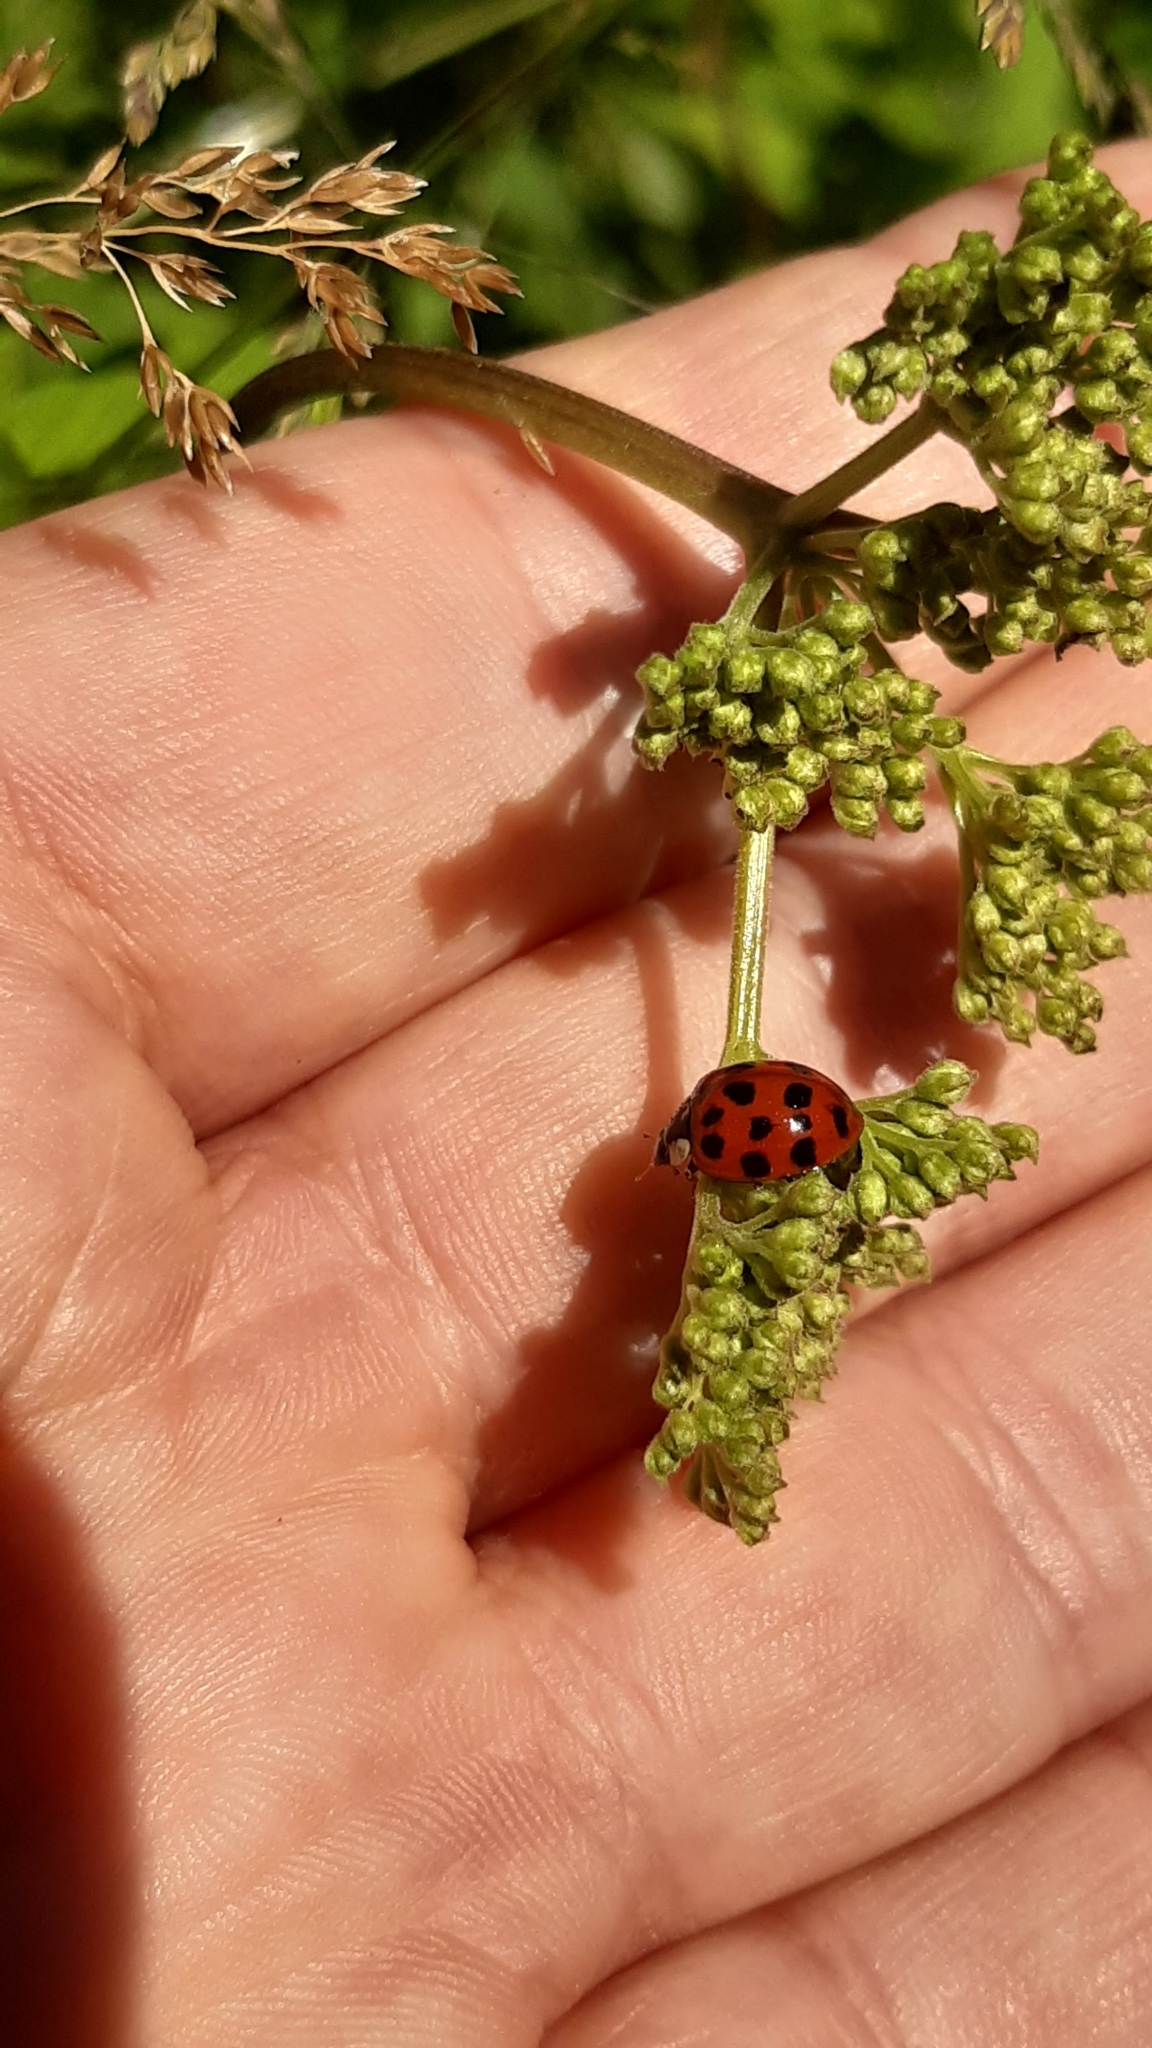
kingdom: Animalia
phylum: Arthropoda
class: Insecta
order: Coleoptera
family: Coccinellidae
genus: Harmonia
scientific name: Harmonia axyridis
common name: Harlequin ladybird
